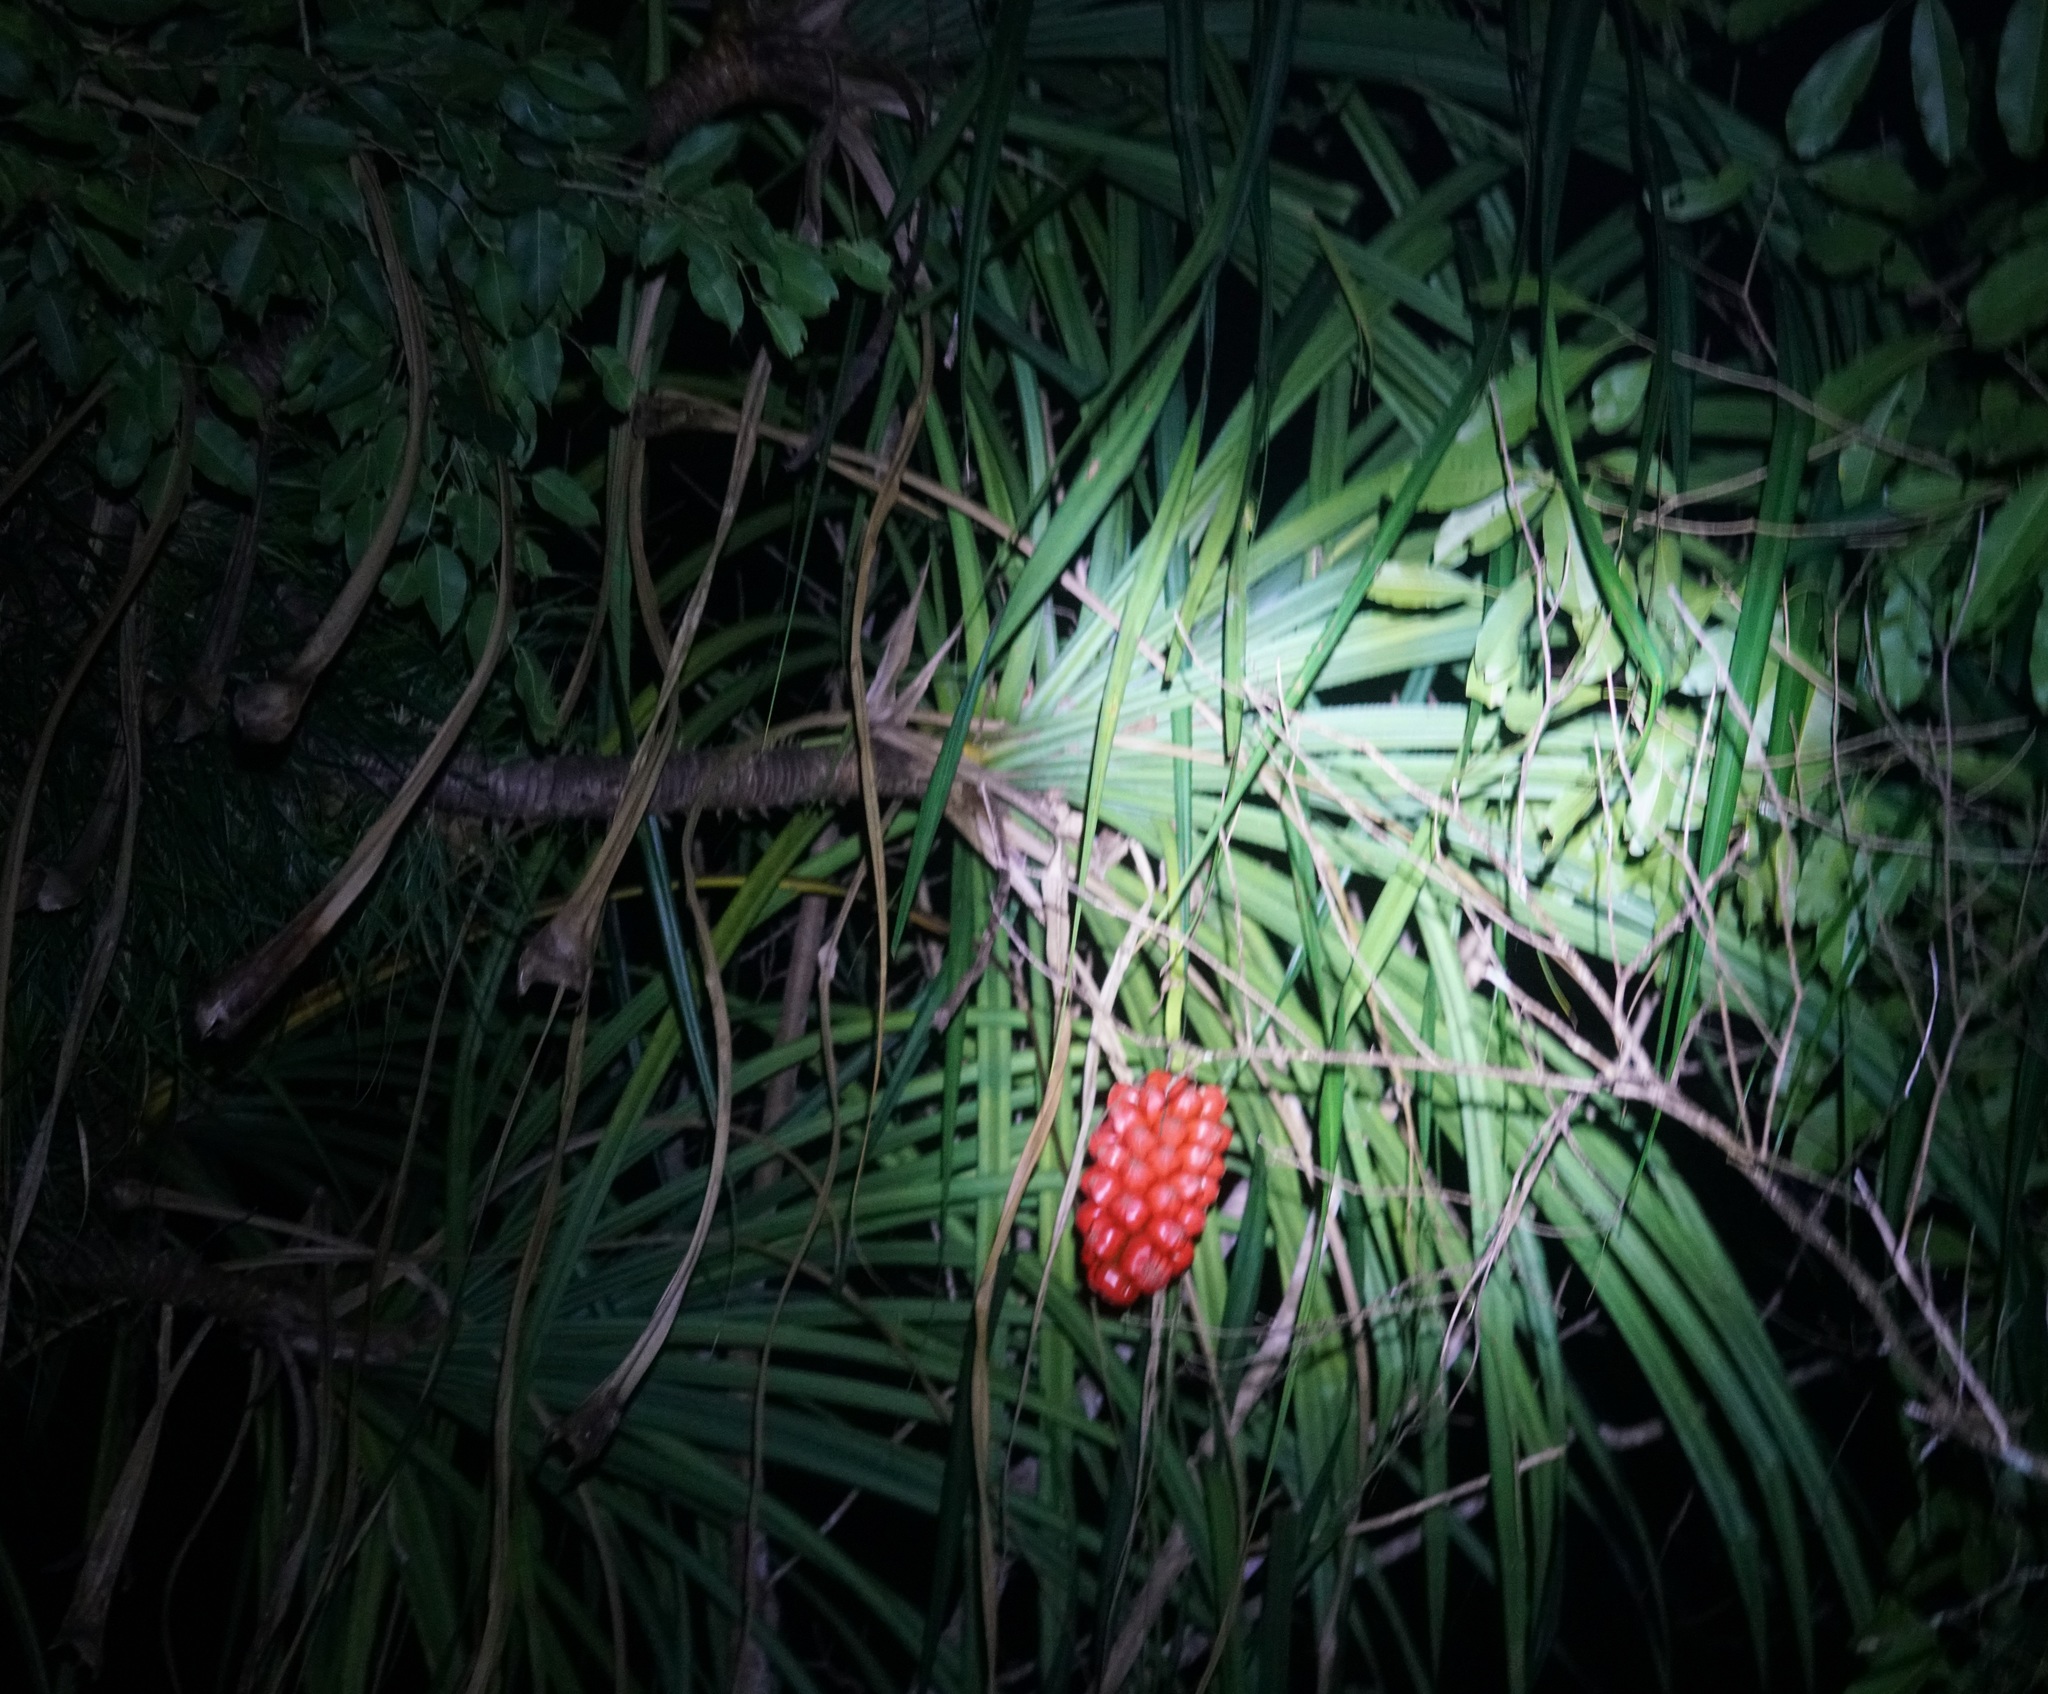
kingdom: Plantae
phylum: Tracheophyta
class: Liliopsida
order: Pandanales
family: Pandanaceae
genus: Pandanus
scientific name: Pandanus gemmifer
